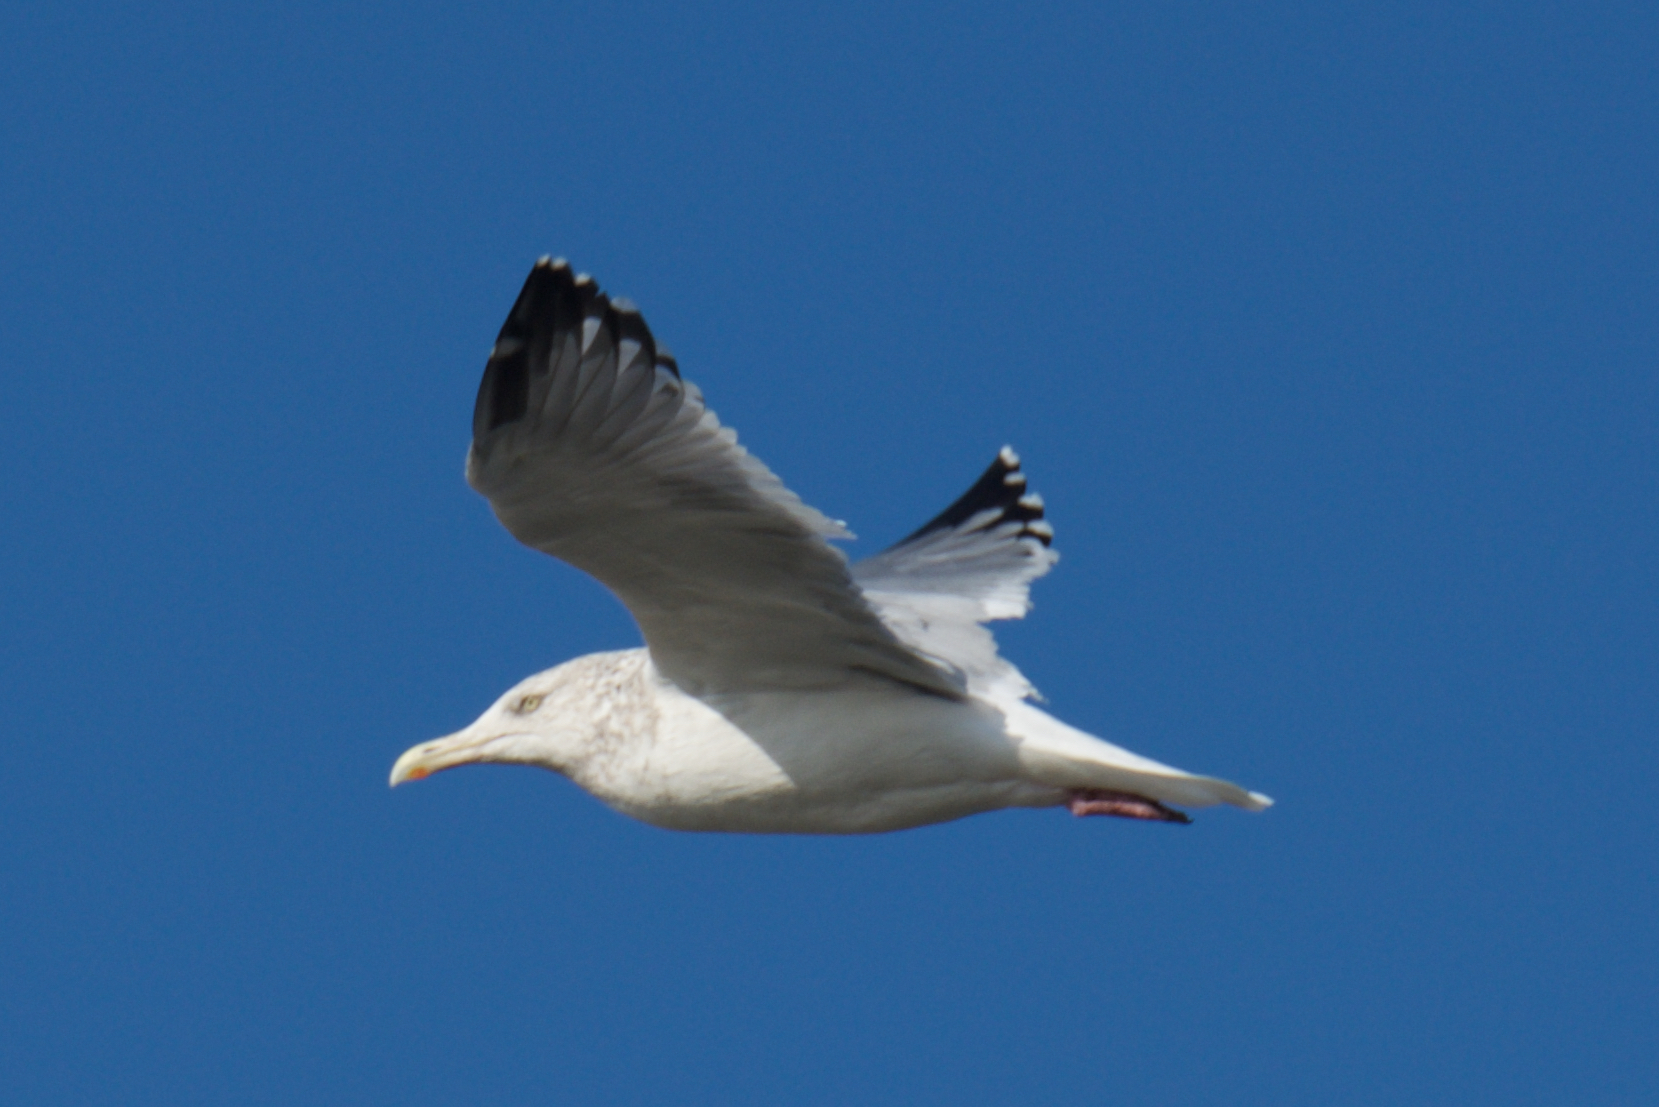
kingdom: Animalia
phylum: Chordata
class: Aves
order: Charadriiformes
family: Laridae
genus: Larus
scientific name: Larus argentatus
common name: Herring gull
